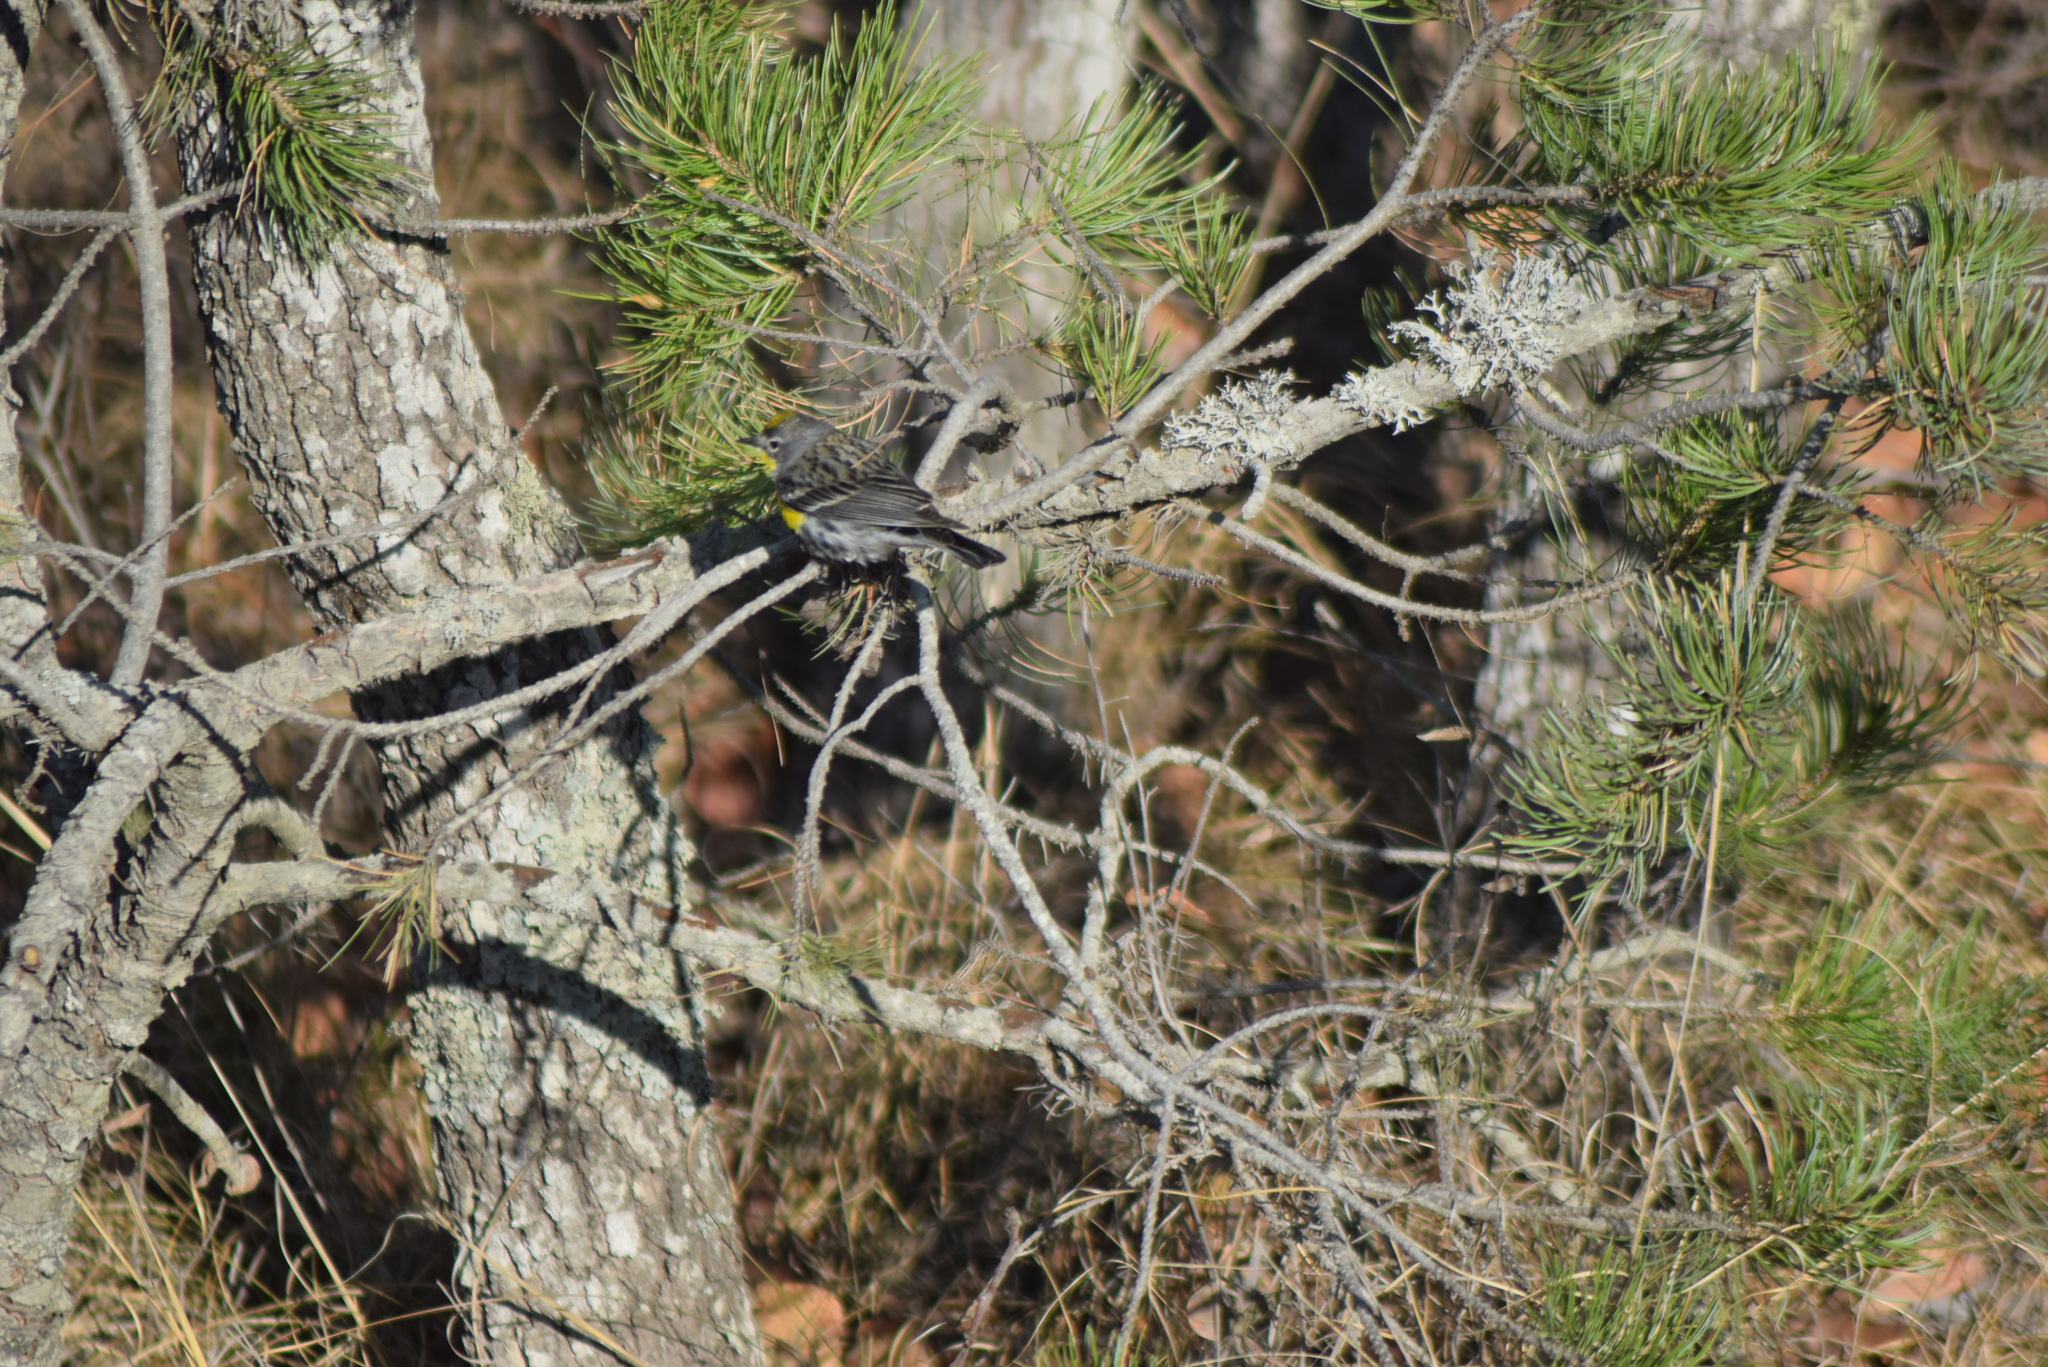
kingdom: Animalia
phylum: Chordata
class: Aves
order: Passeriformes
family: Parulidae
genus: Setophaga
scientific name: Setophaga coronata
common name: Myrtle warbler
